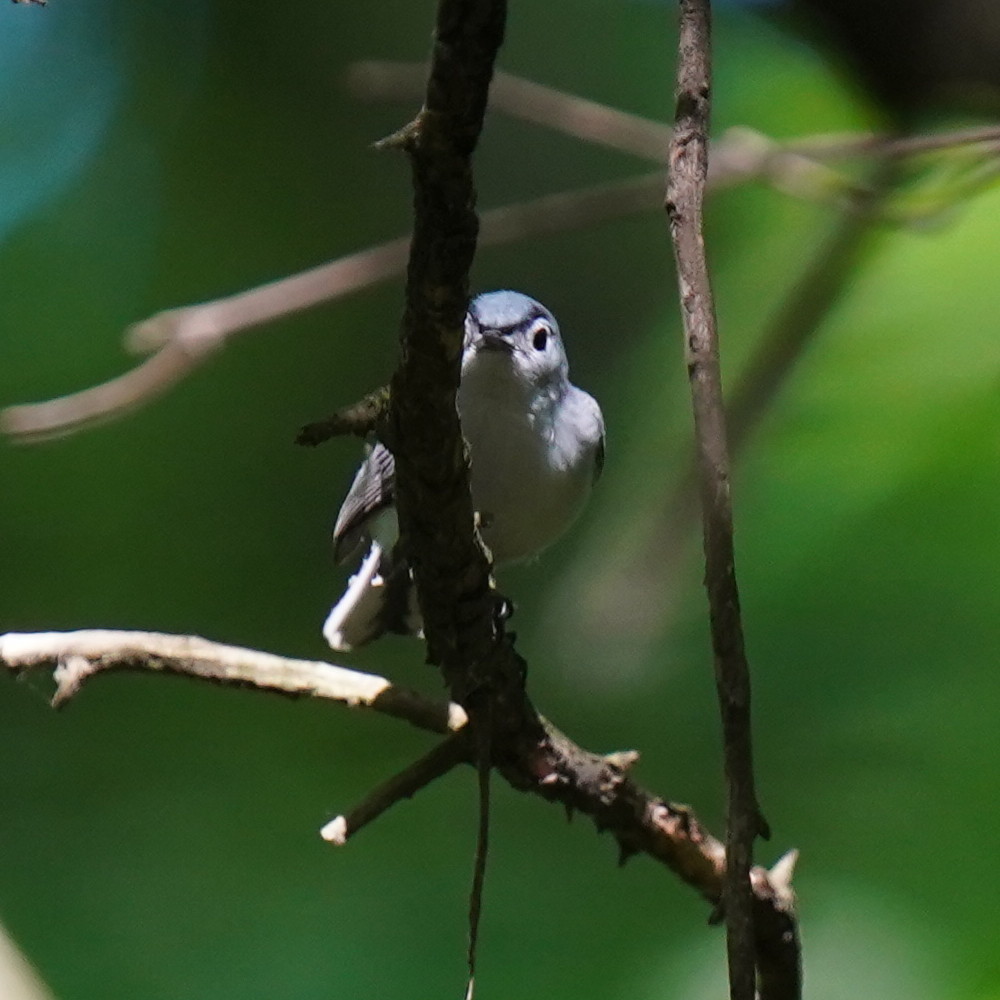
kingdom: Animalia
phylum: Chordata
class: Aves
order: Passeriformes
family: Polioptilidae
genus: Polioptila
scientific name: Polioptila caerulea
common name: Blue-gray gnatcatcher
